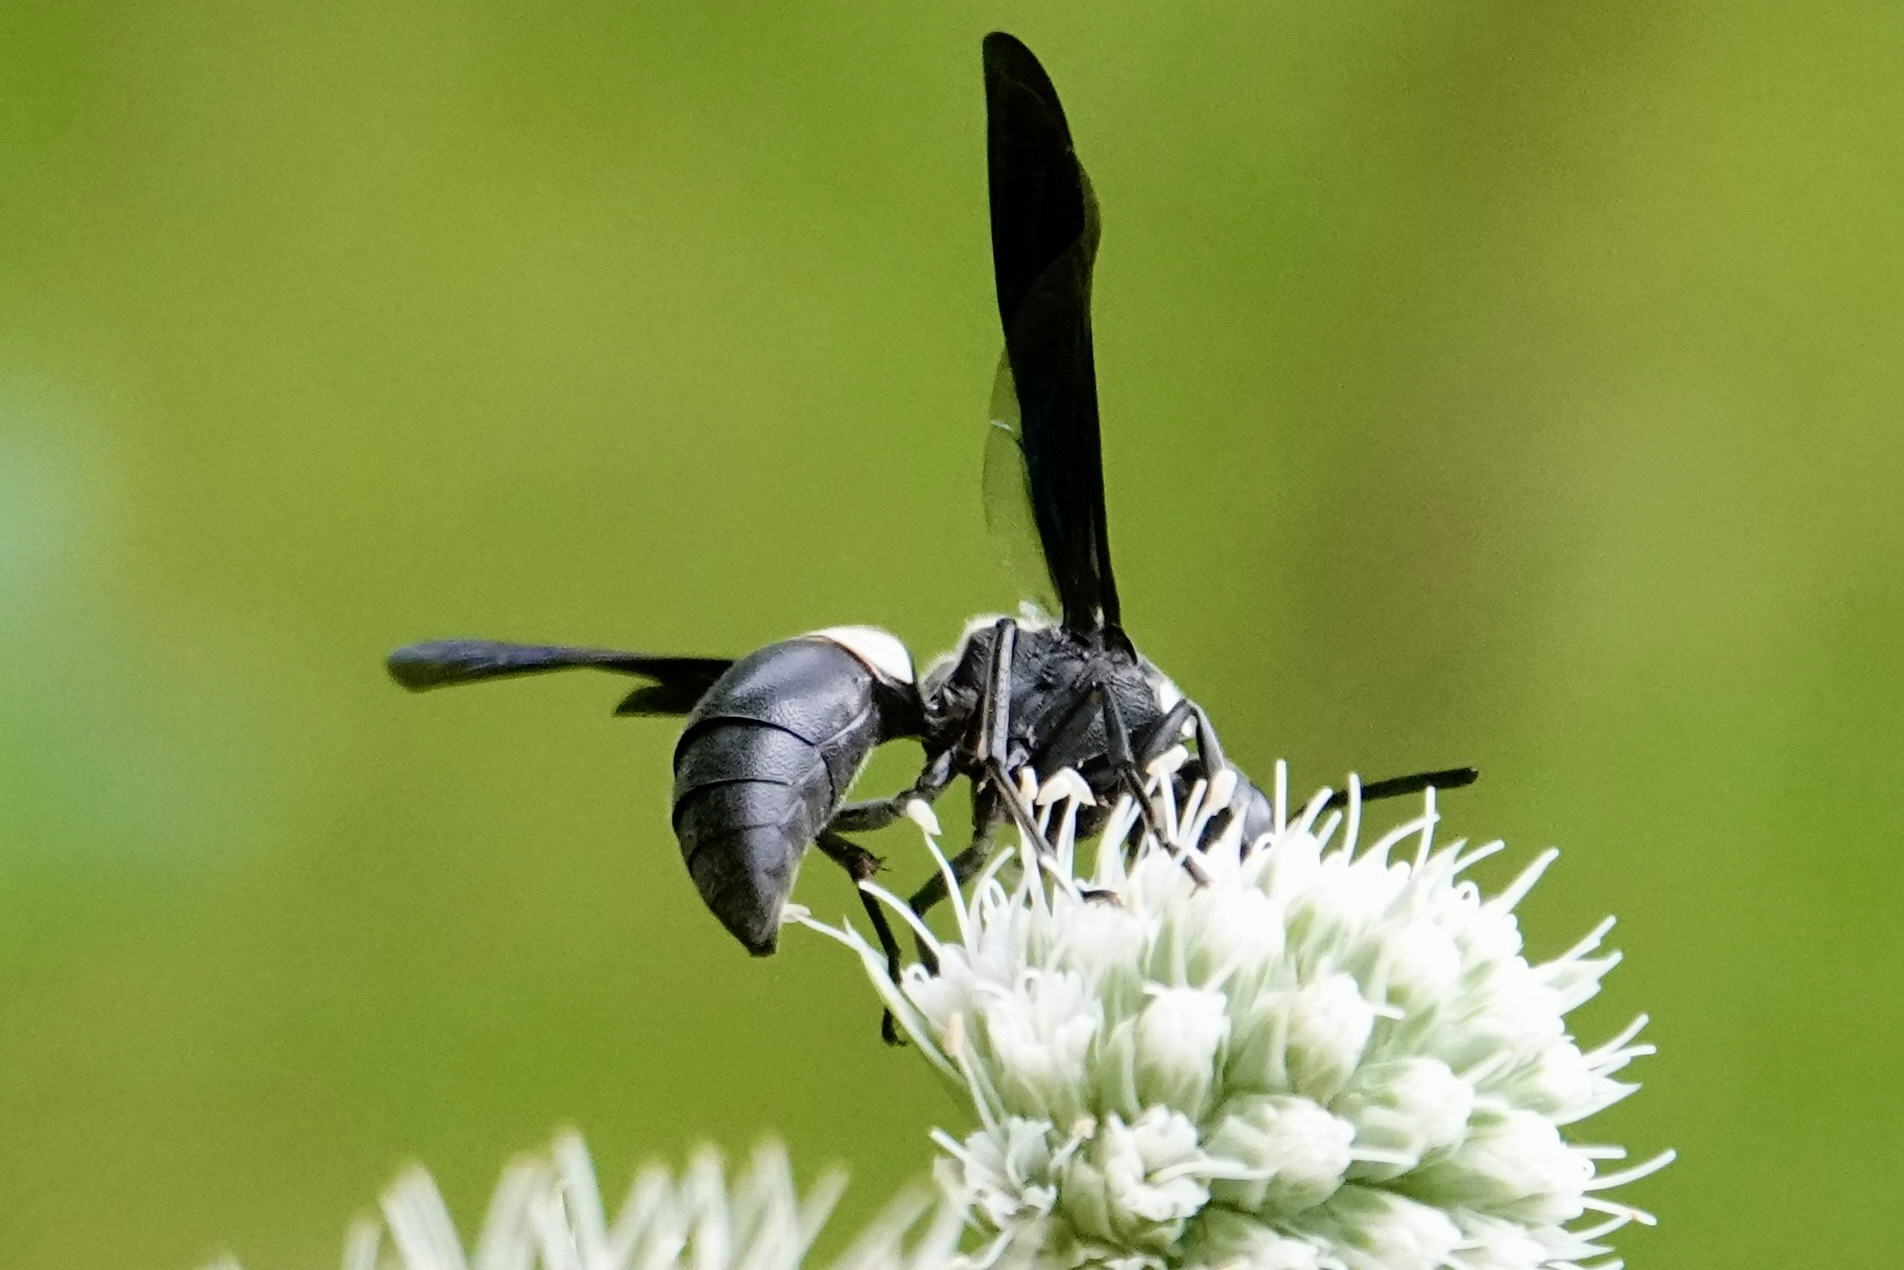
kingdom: Animalia
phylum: Arthropoda
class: Insecta
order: Hymenoptera
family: Eumenidae
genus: Monobia
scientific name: Monobia quadridens
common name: Four-toothed mason wasp
